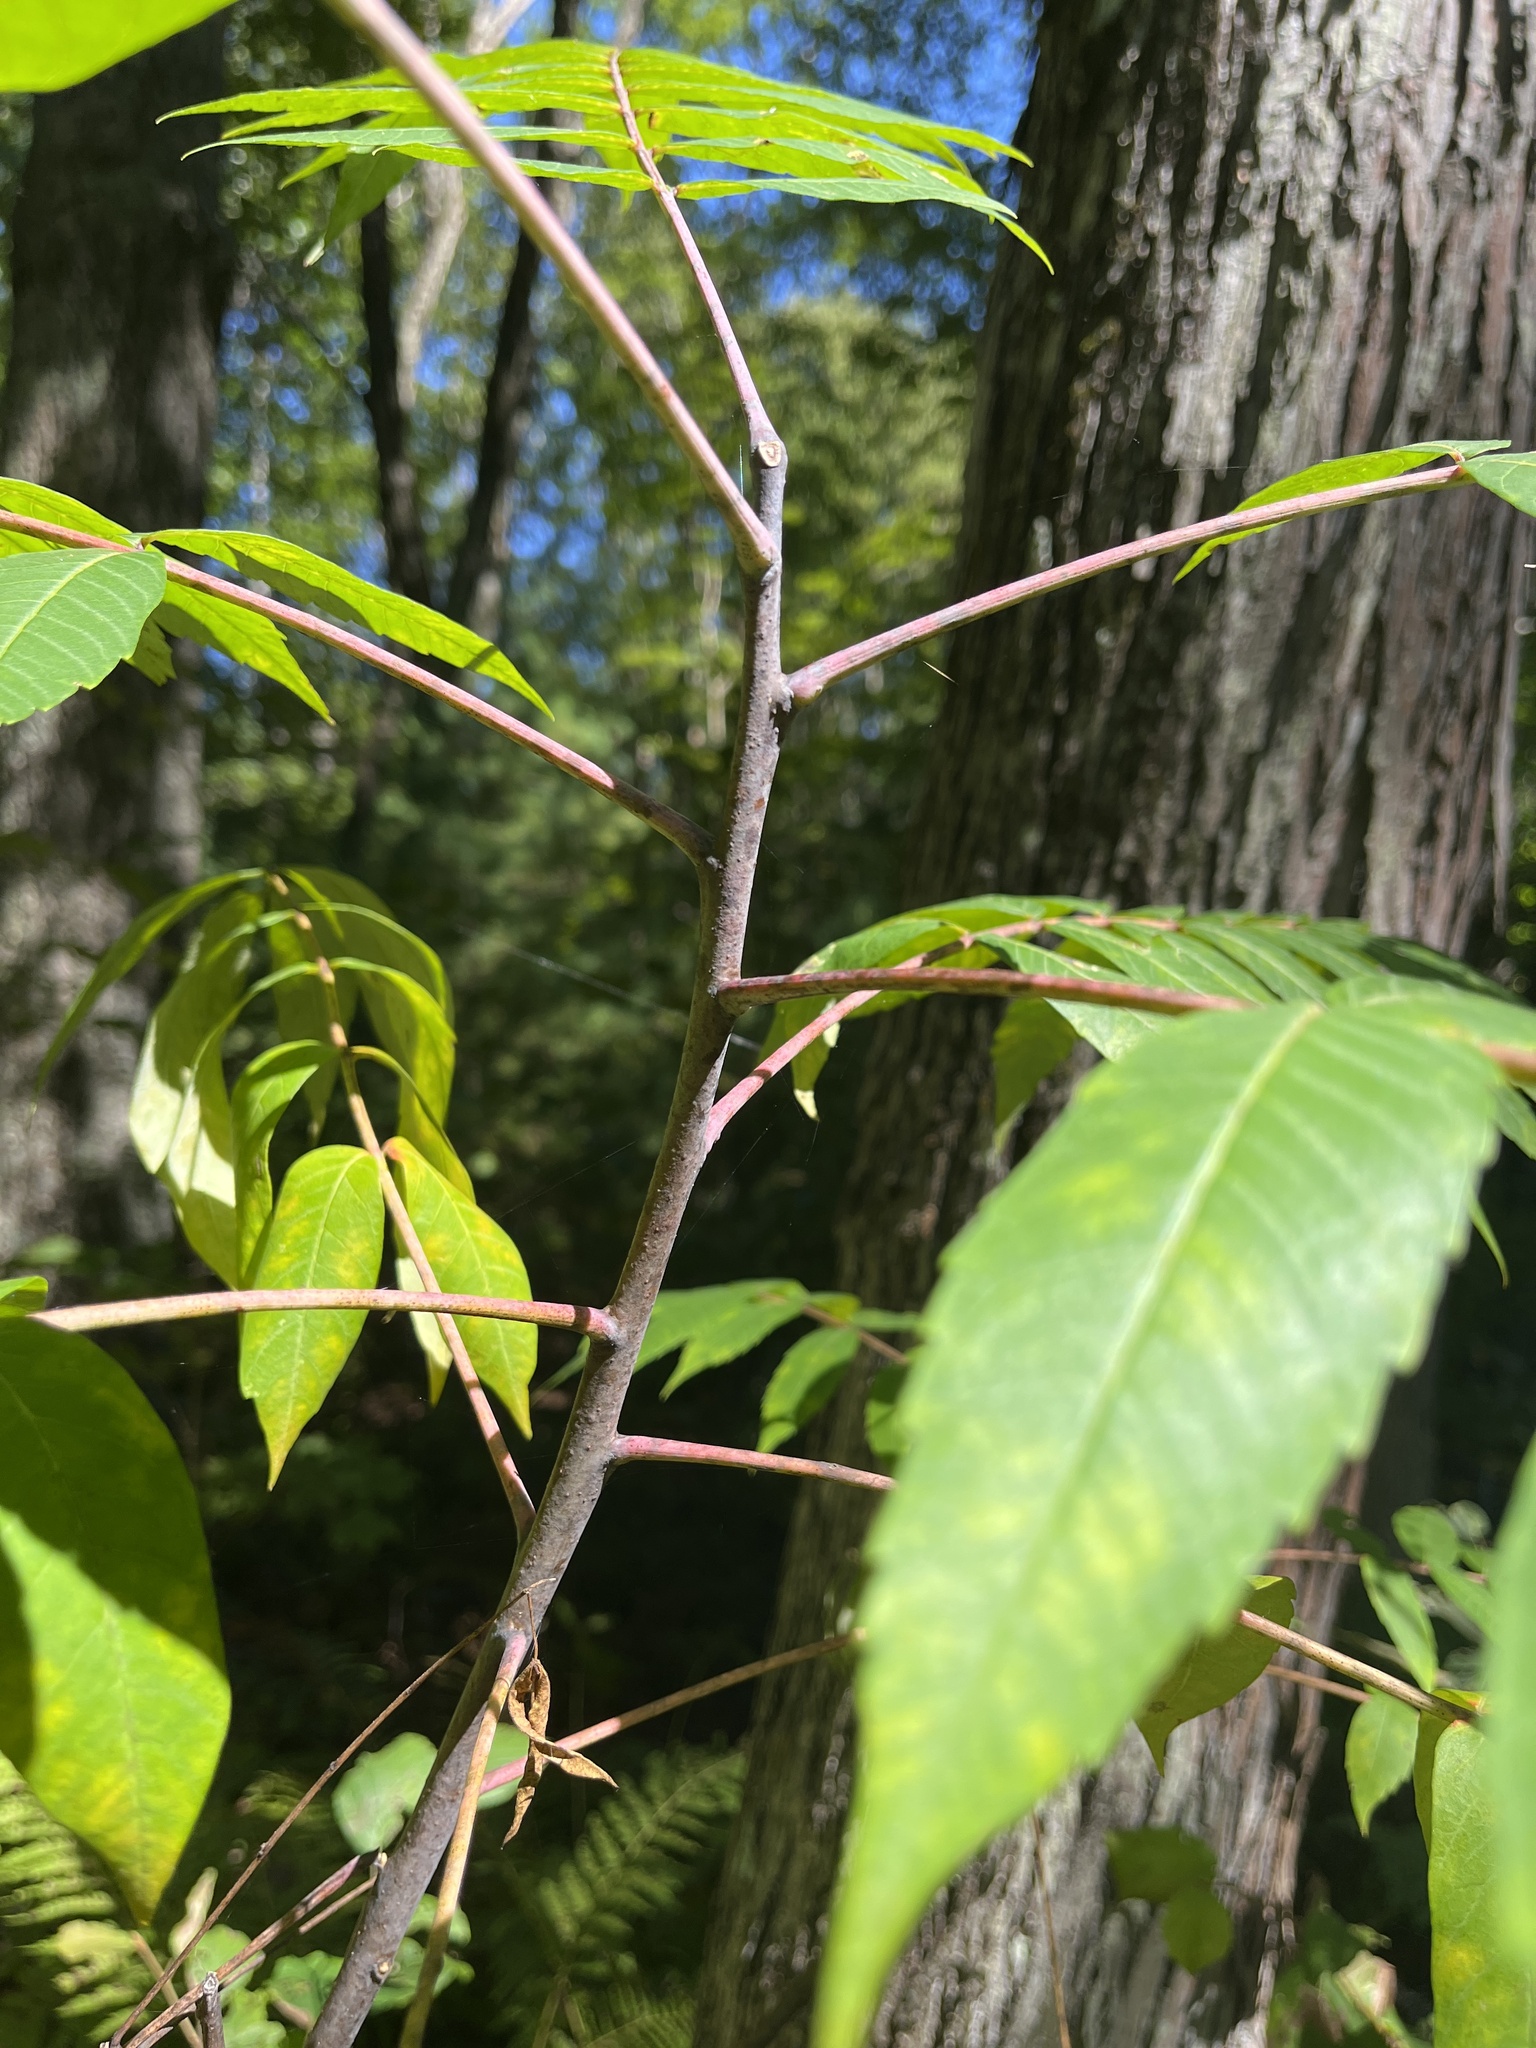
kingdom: Plantae
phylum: Tracheophyta
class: Magnoliopsida
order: Sapindales
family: Anacardiaceae
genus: Rhus
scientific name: Rhus glabra
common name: Scarlet sumac
